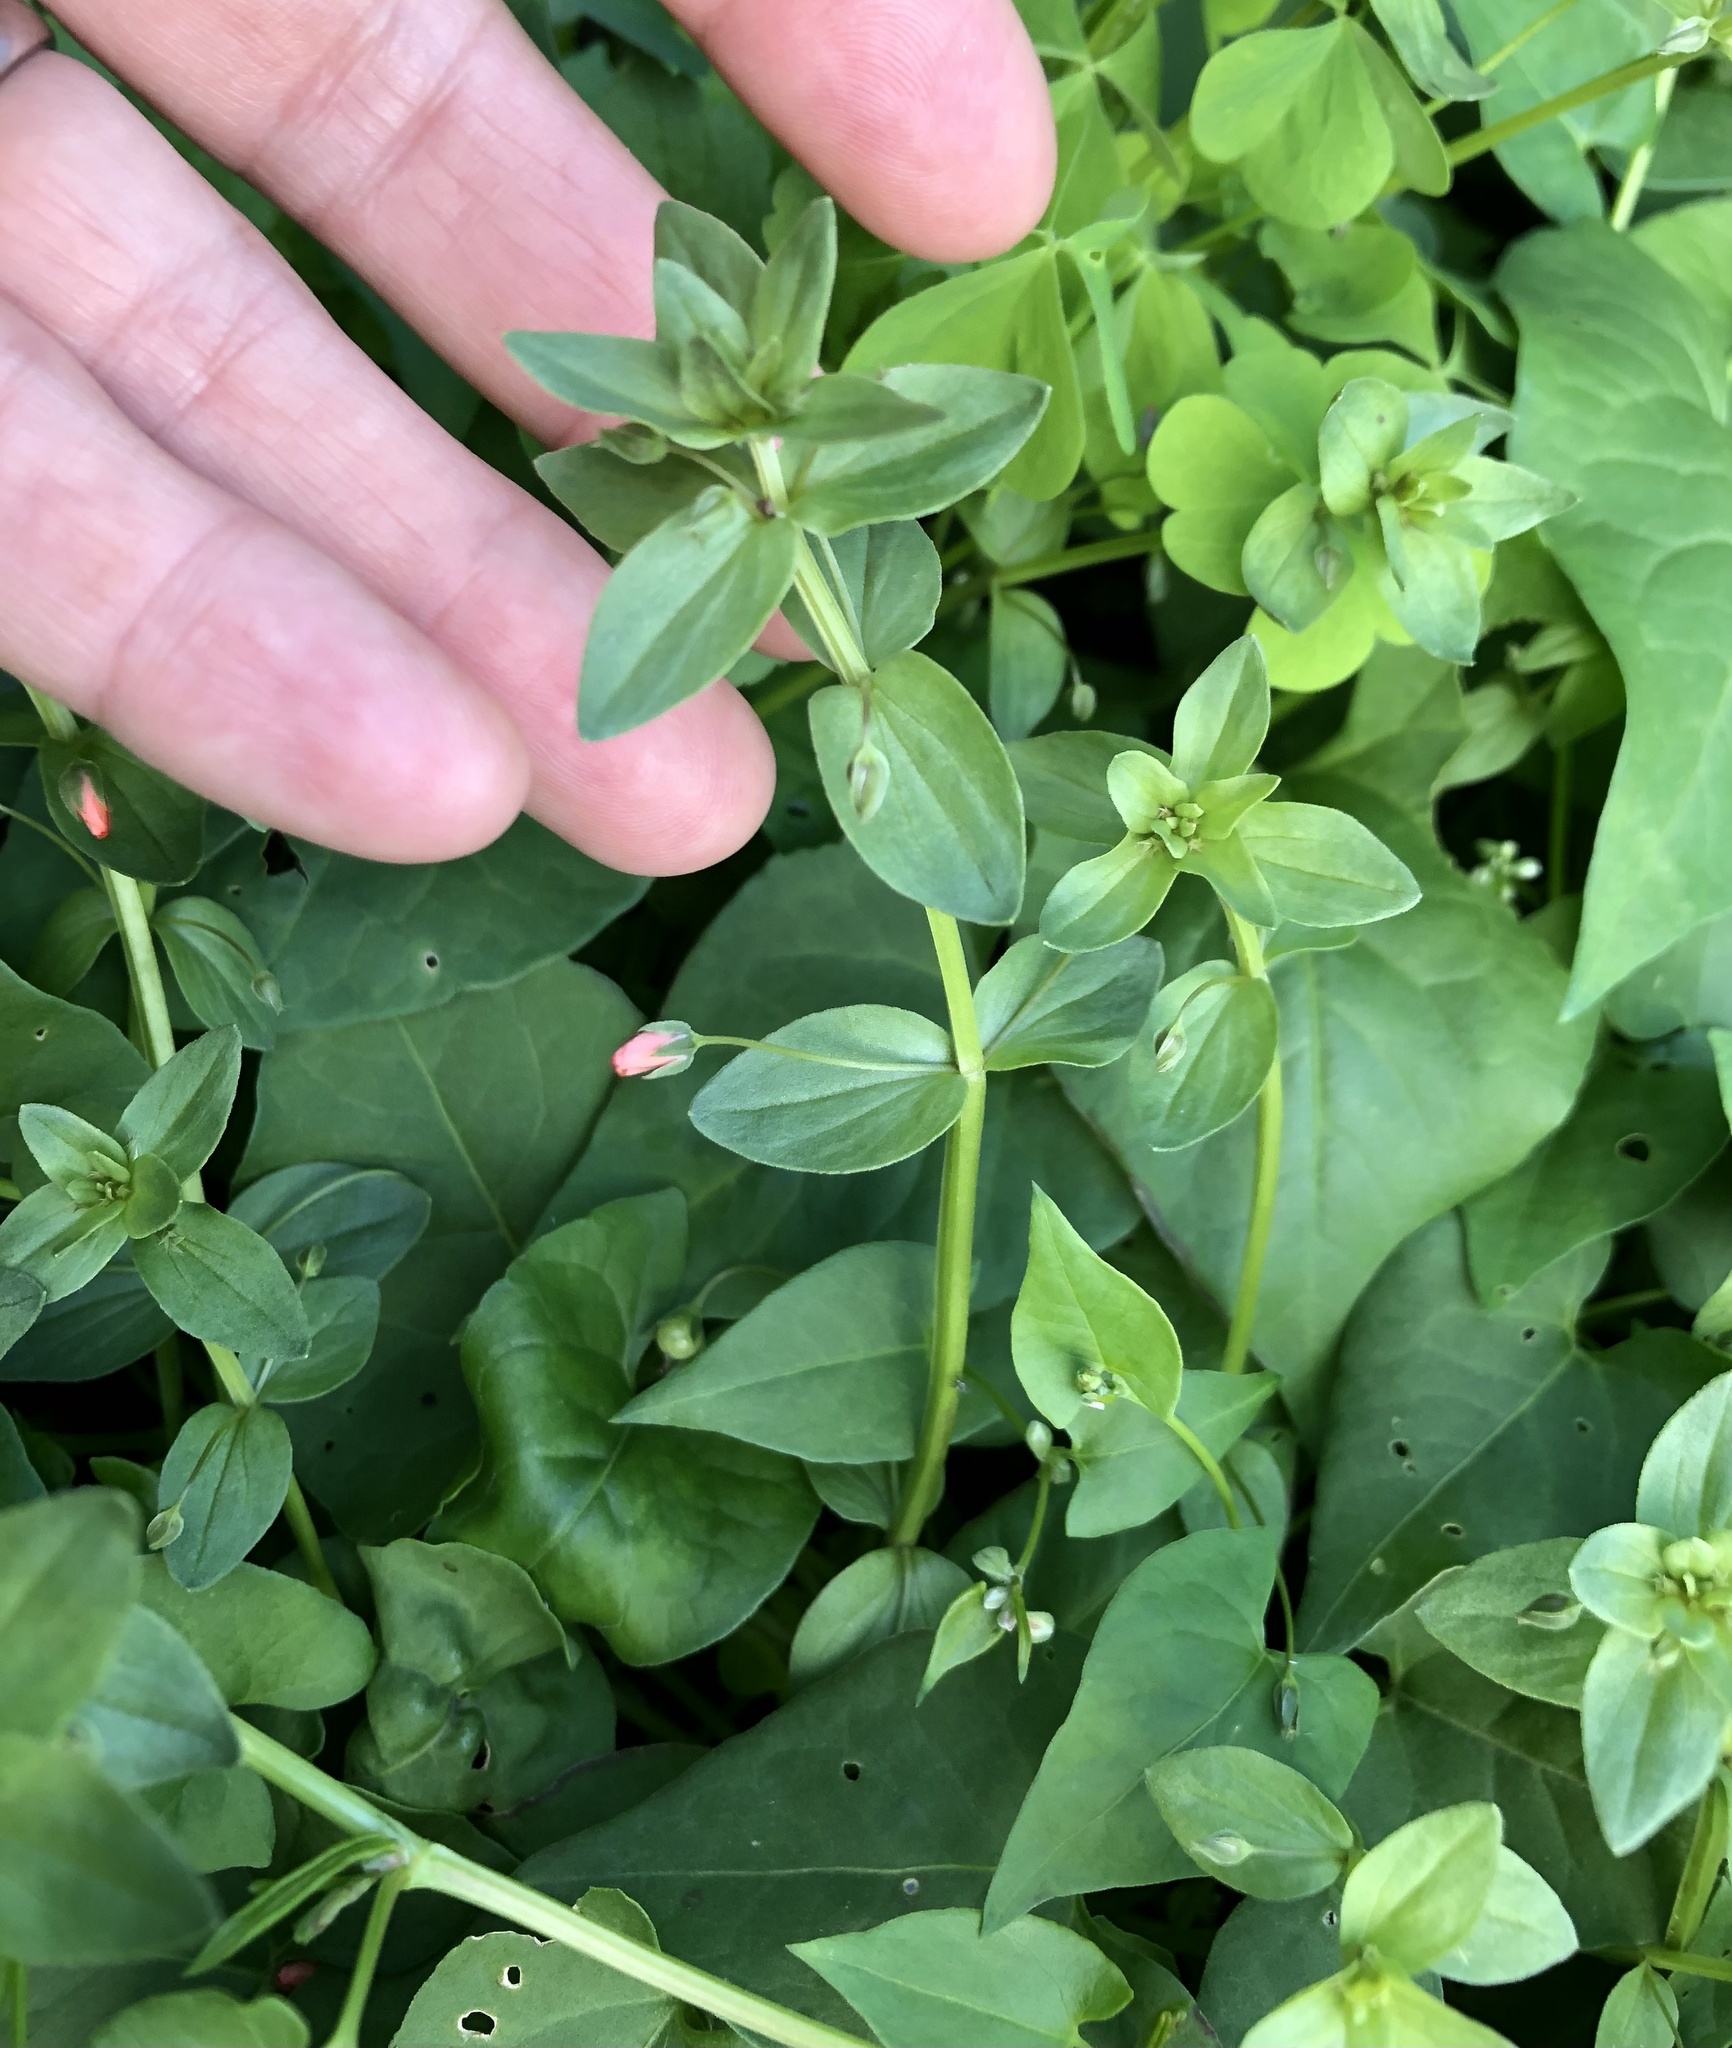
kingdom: Plantae
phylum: Tracheophyta
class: Magnoliopsida
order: Ericales
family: Primulaceae
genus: Lysimachia
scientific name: Lysimachia arvensis
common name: Scarlet pimpernel
